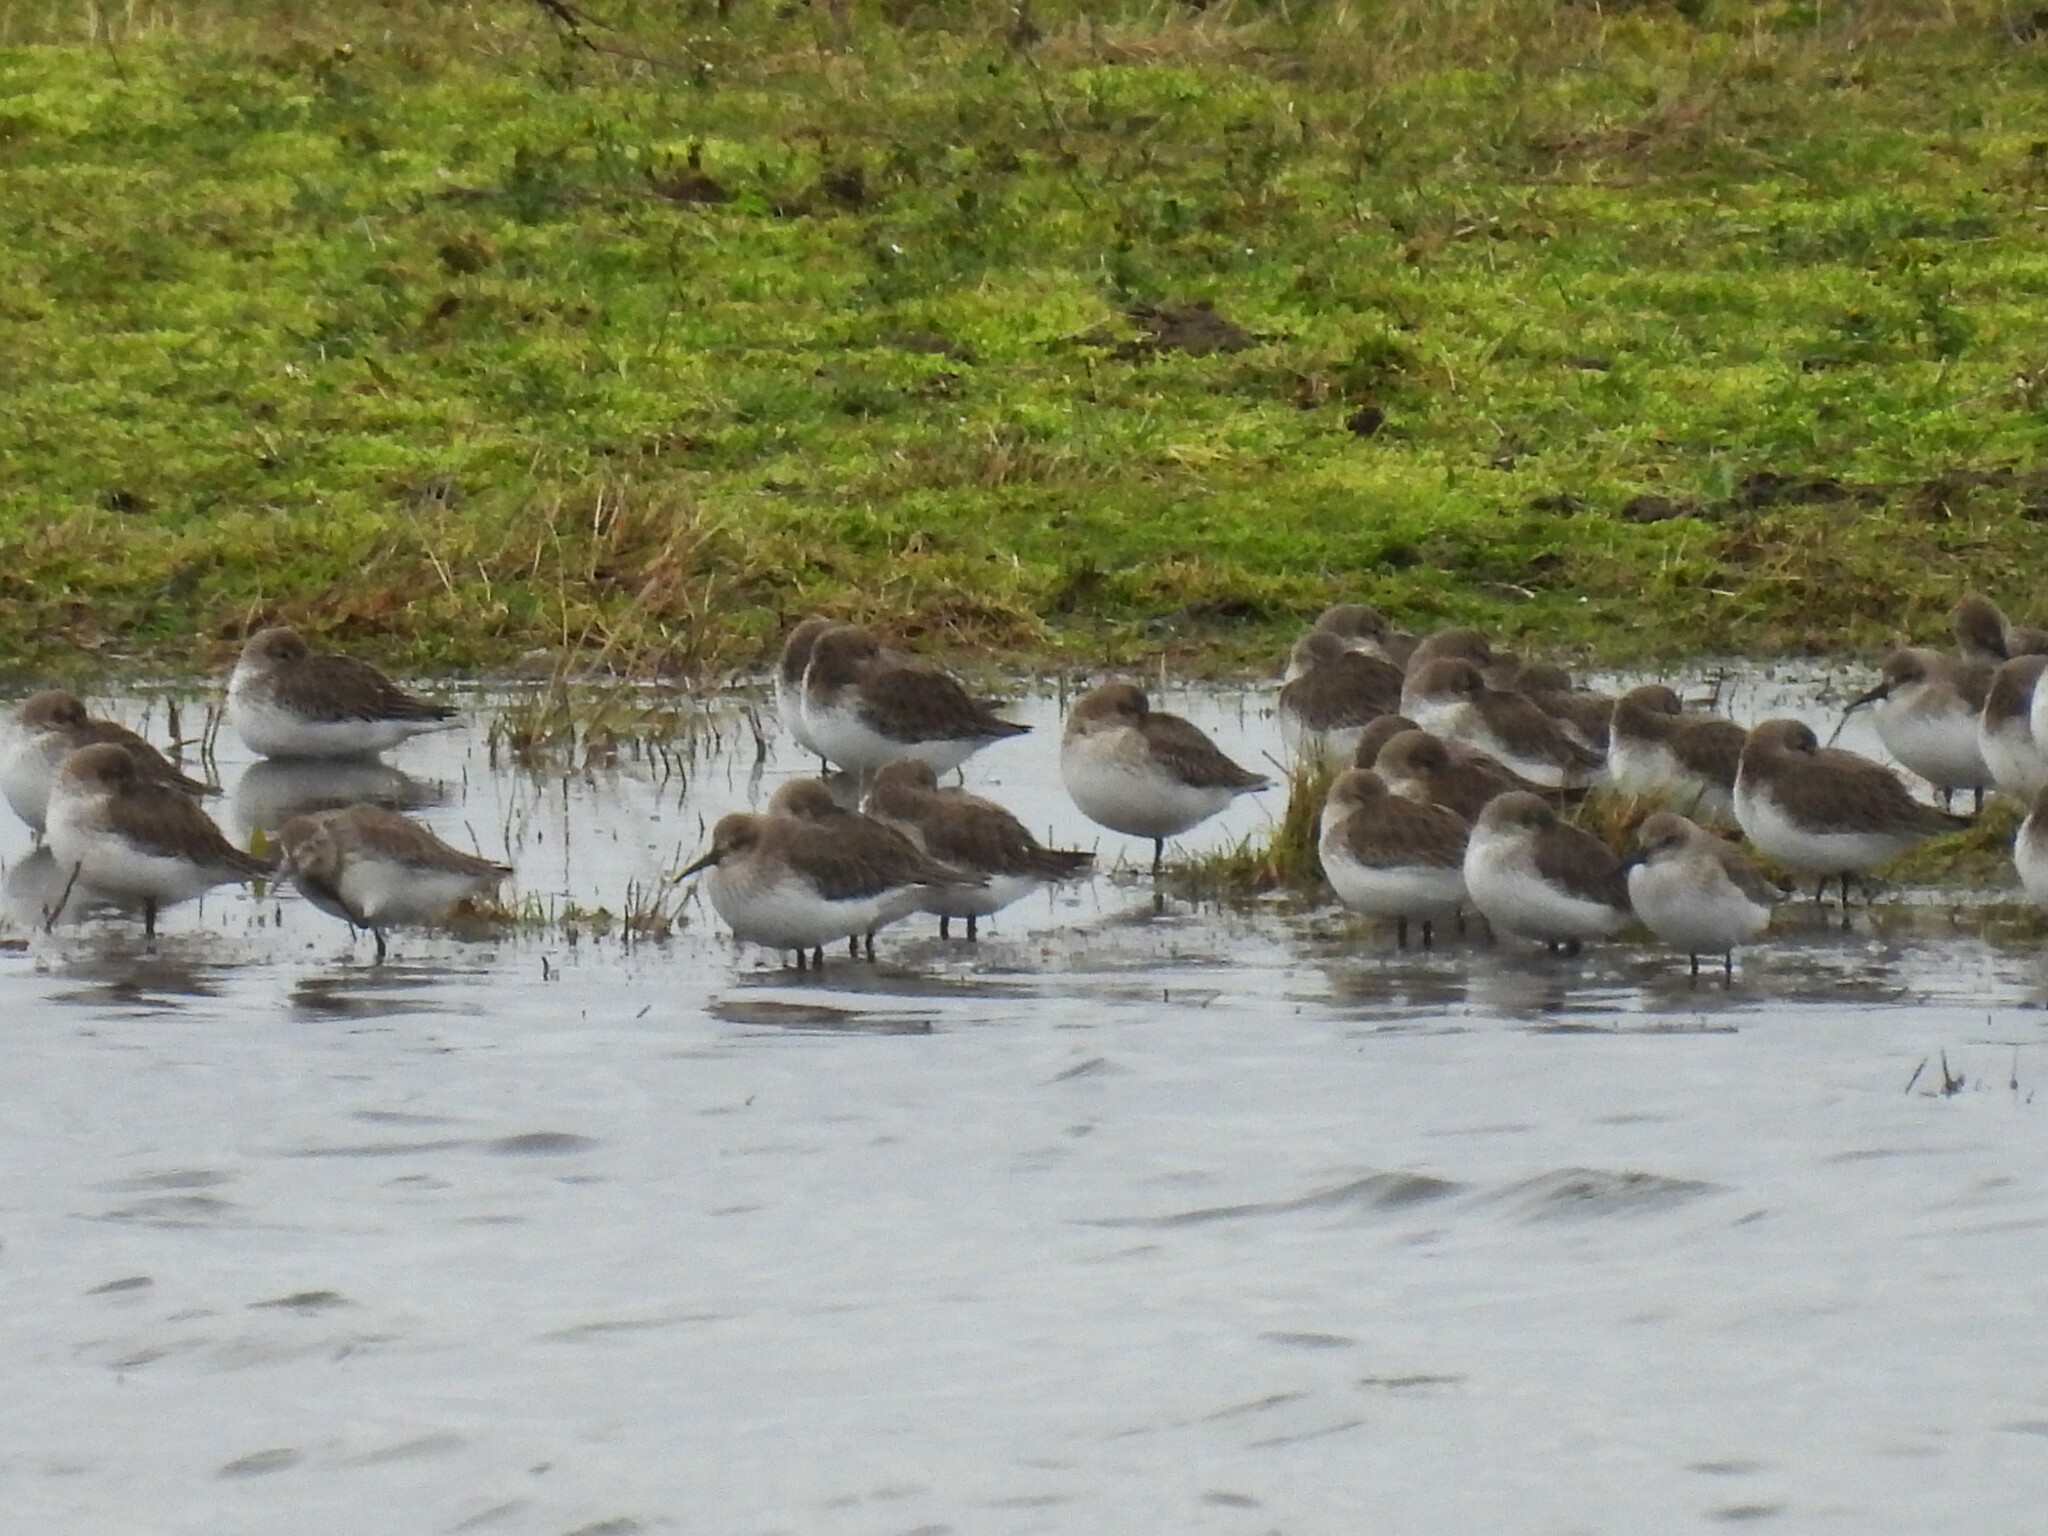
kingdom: Animalia
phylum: Chordata
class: Aves
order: Charadriiformes
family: Scolopacidae
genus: Calidris
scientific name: Calidris alpina
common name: Dunlin
